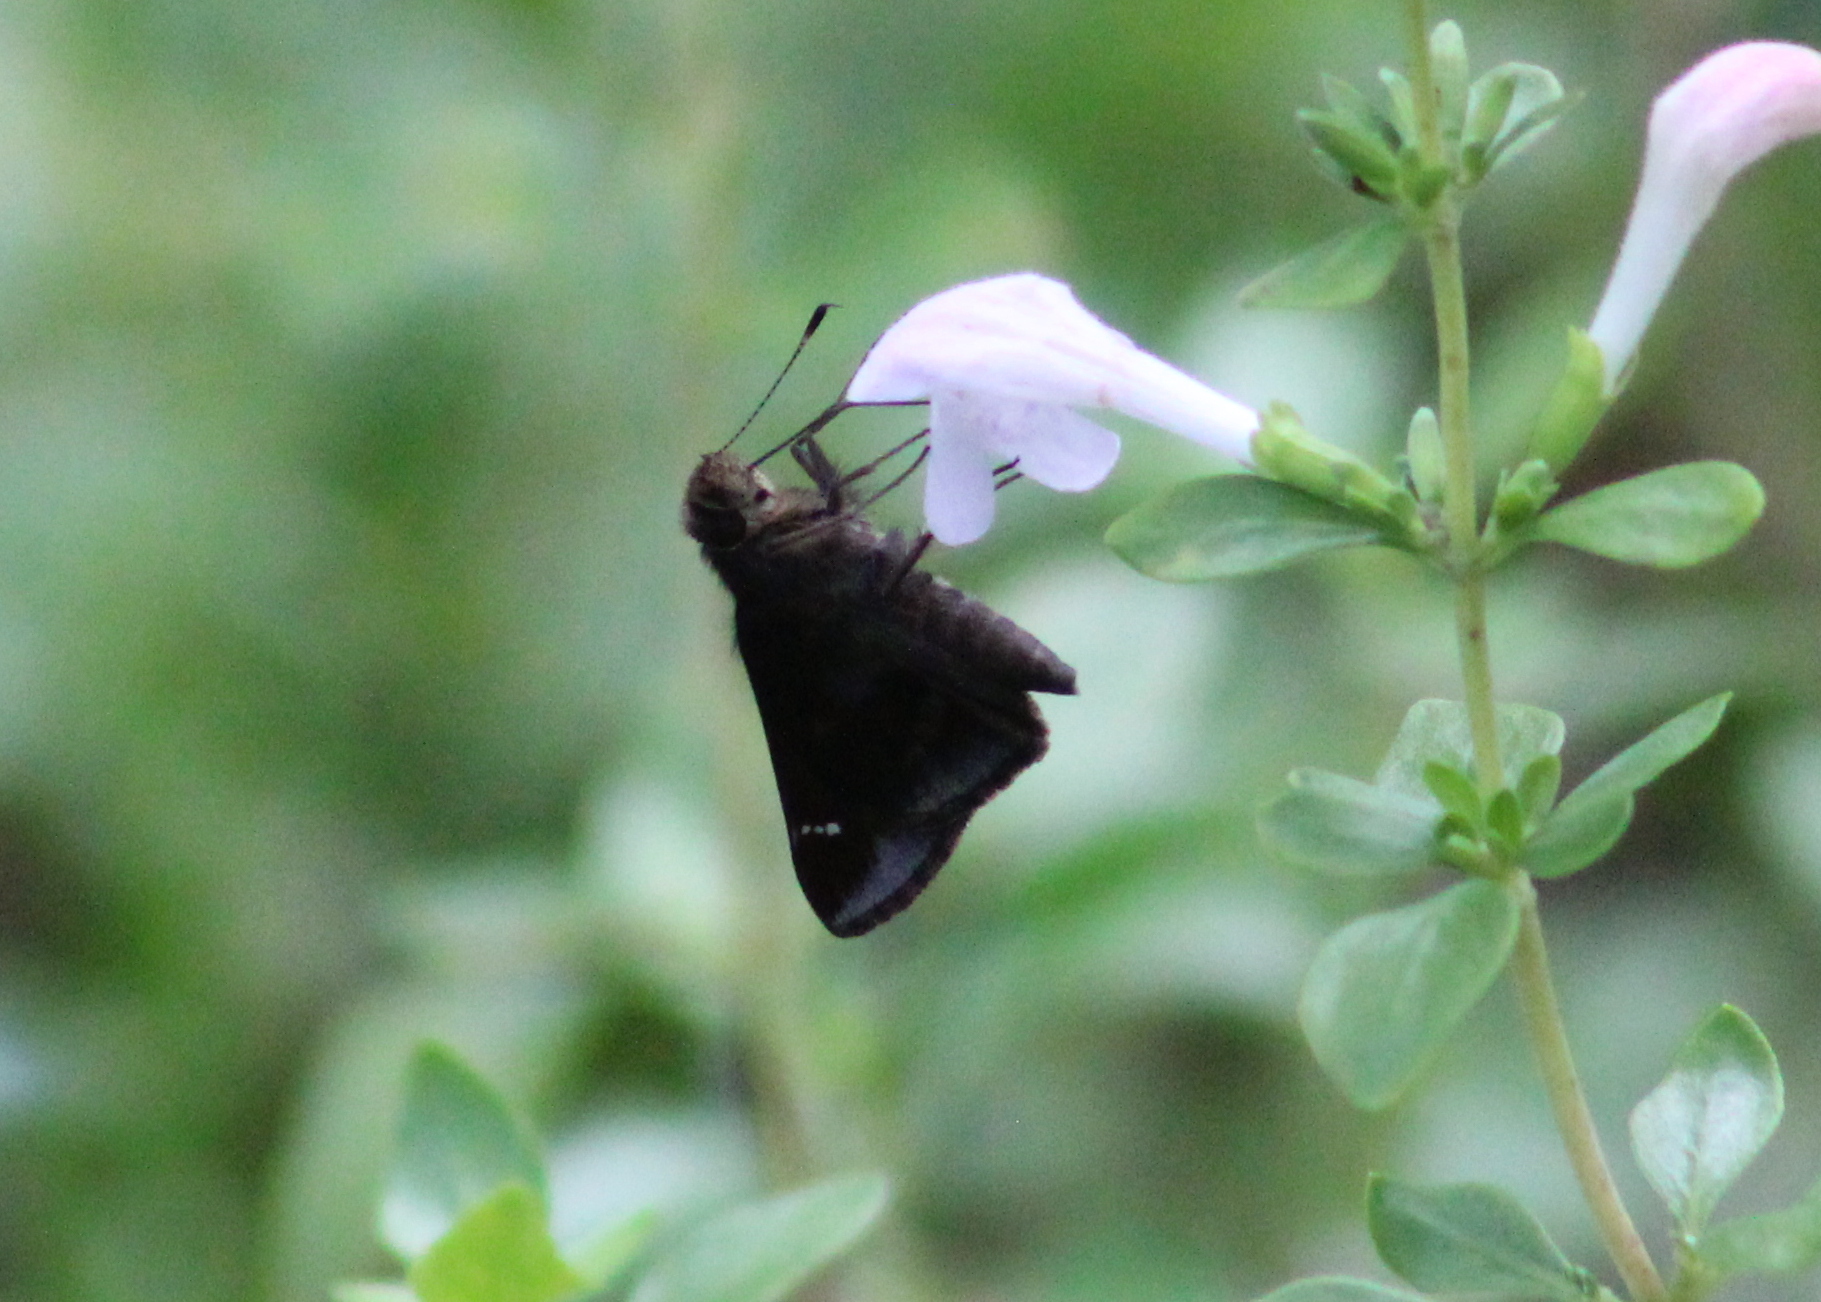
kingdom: Animalia
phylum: Arthropoda
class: Insecta
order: Lepidoptera
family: Hesperiidae
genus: Lerema
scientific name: Lerema accius
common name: Clouded skipper
